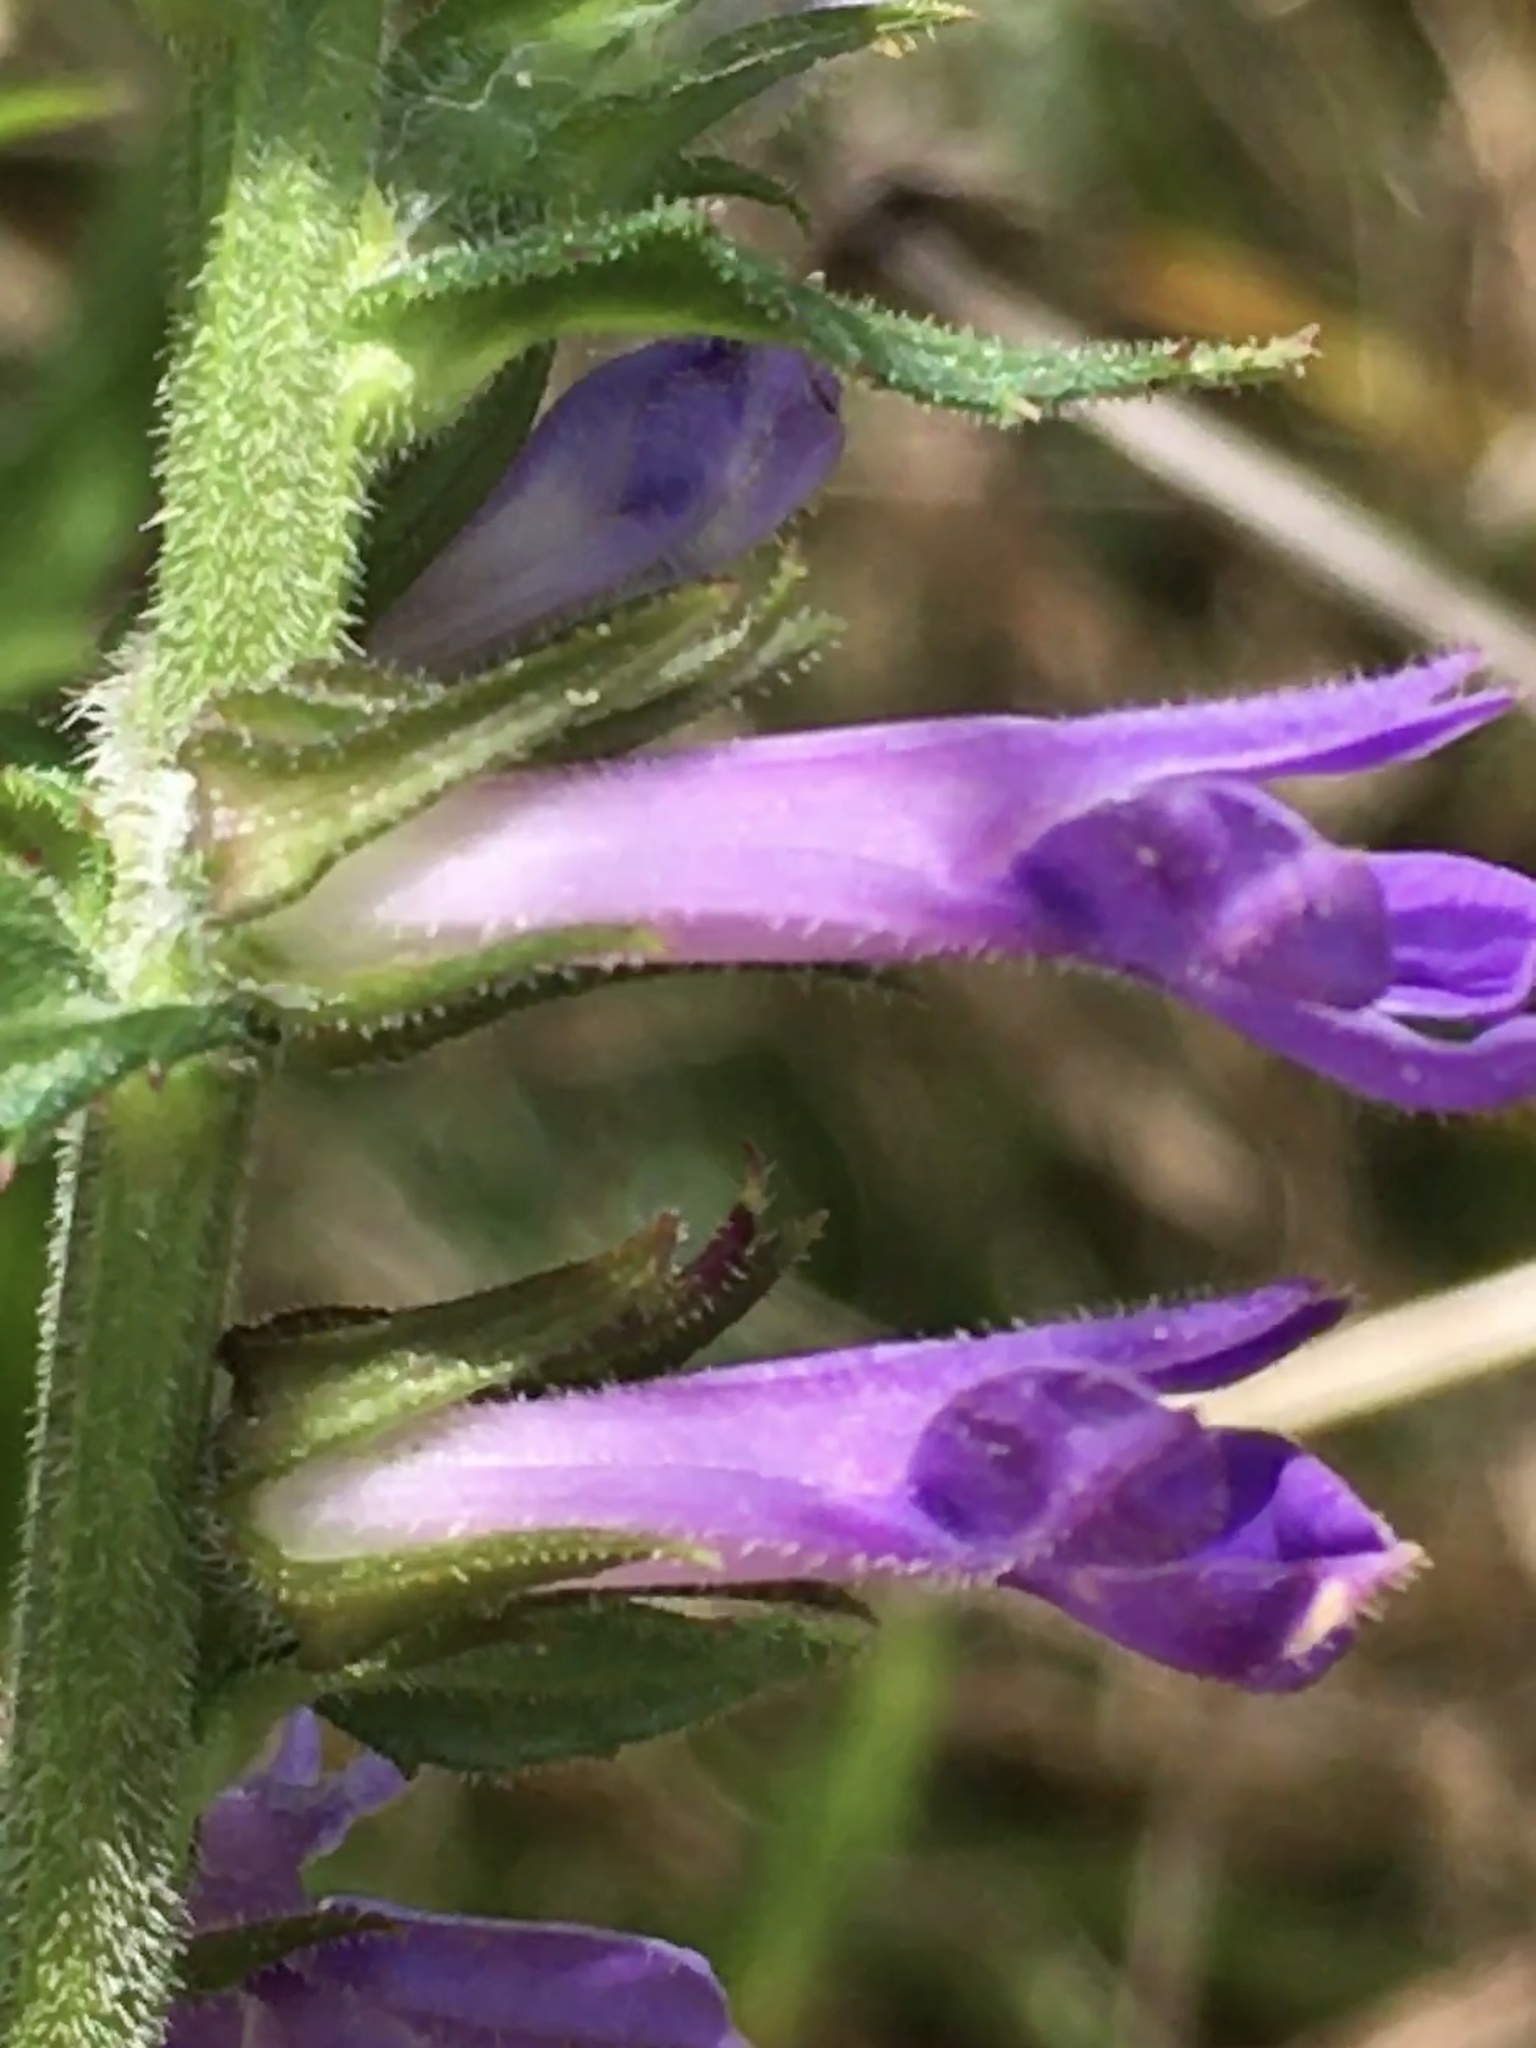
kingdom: Plantae
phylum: Tracheophyta
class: Magnoliopsida
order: Asterales
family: Campanulaceae
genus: Lobelia
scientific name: Lobelia puberula
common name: Purple dewdrop
